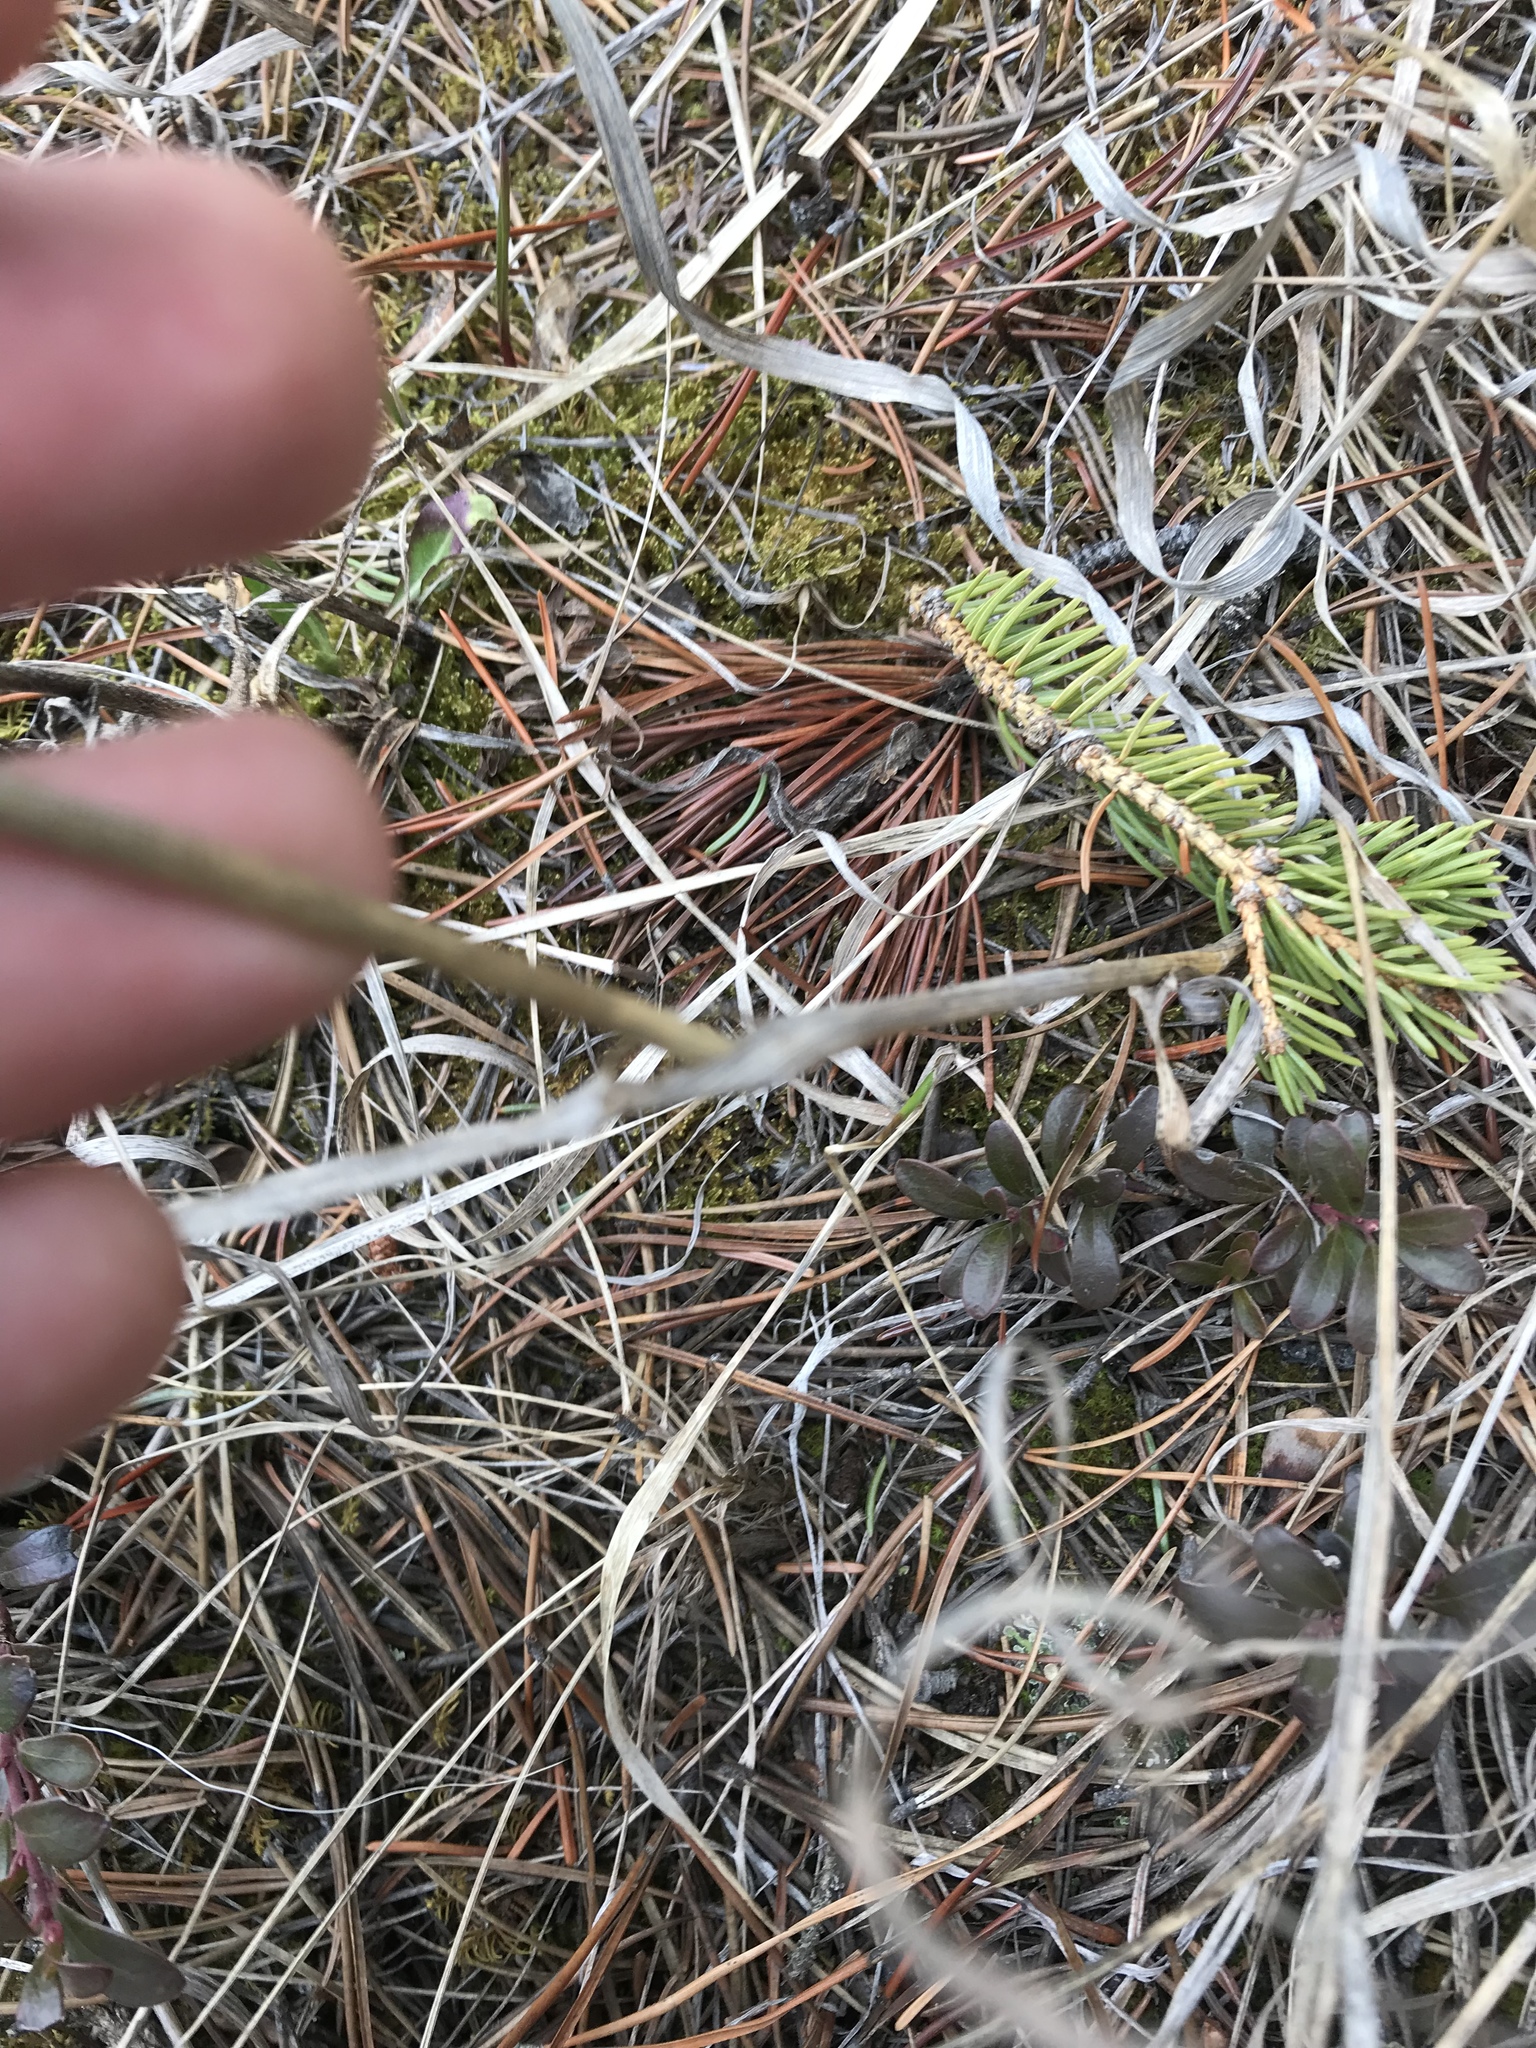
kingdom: Plantae
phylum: Tracheophyta
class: Liliopsida
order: Poales
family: Poaceae
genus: Bromus
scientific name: Bromus inermis
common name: Smooth brome
